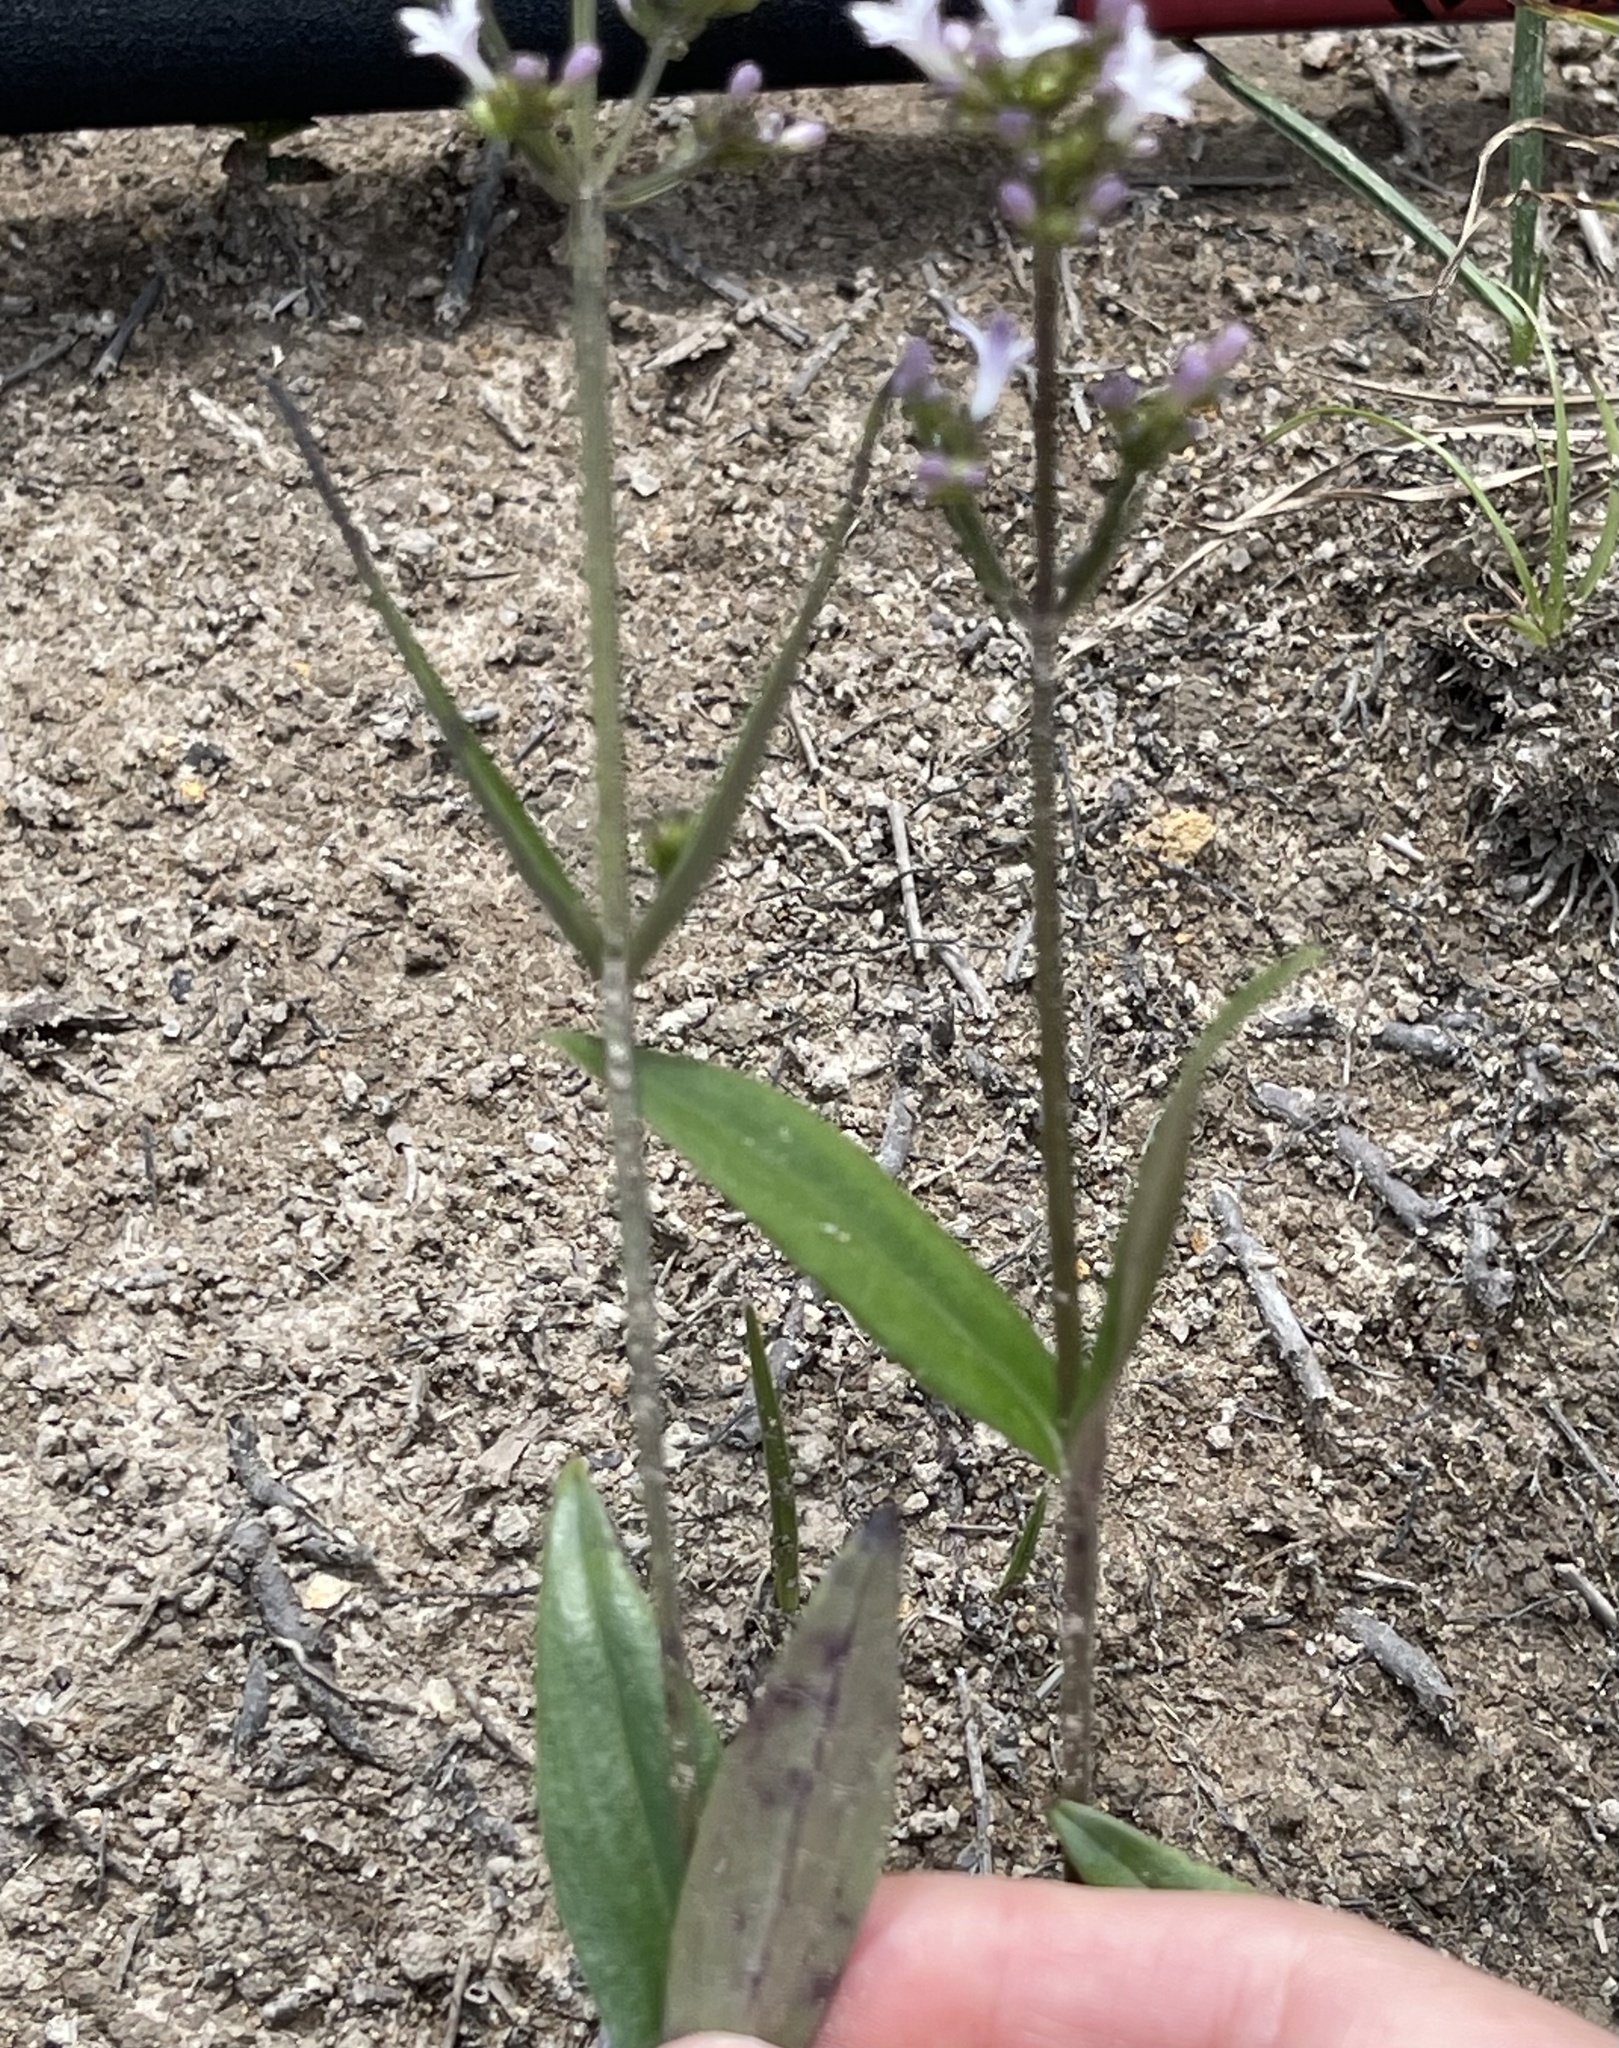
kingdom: Plantae
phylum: Tracheophyta
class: Magnoliopsida
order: Gentianales
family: Rubiaceae
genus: Hedyotis
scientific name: Hedyotis lancea
